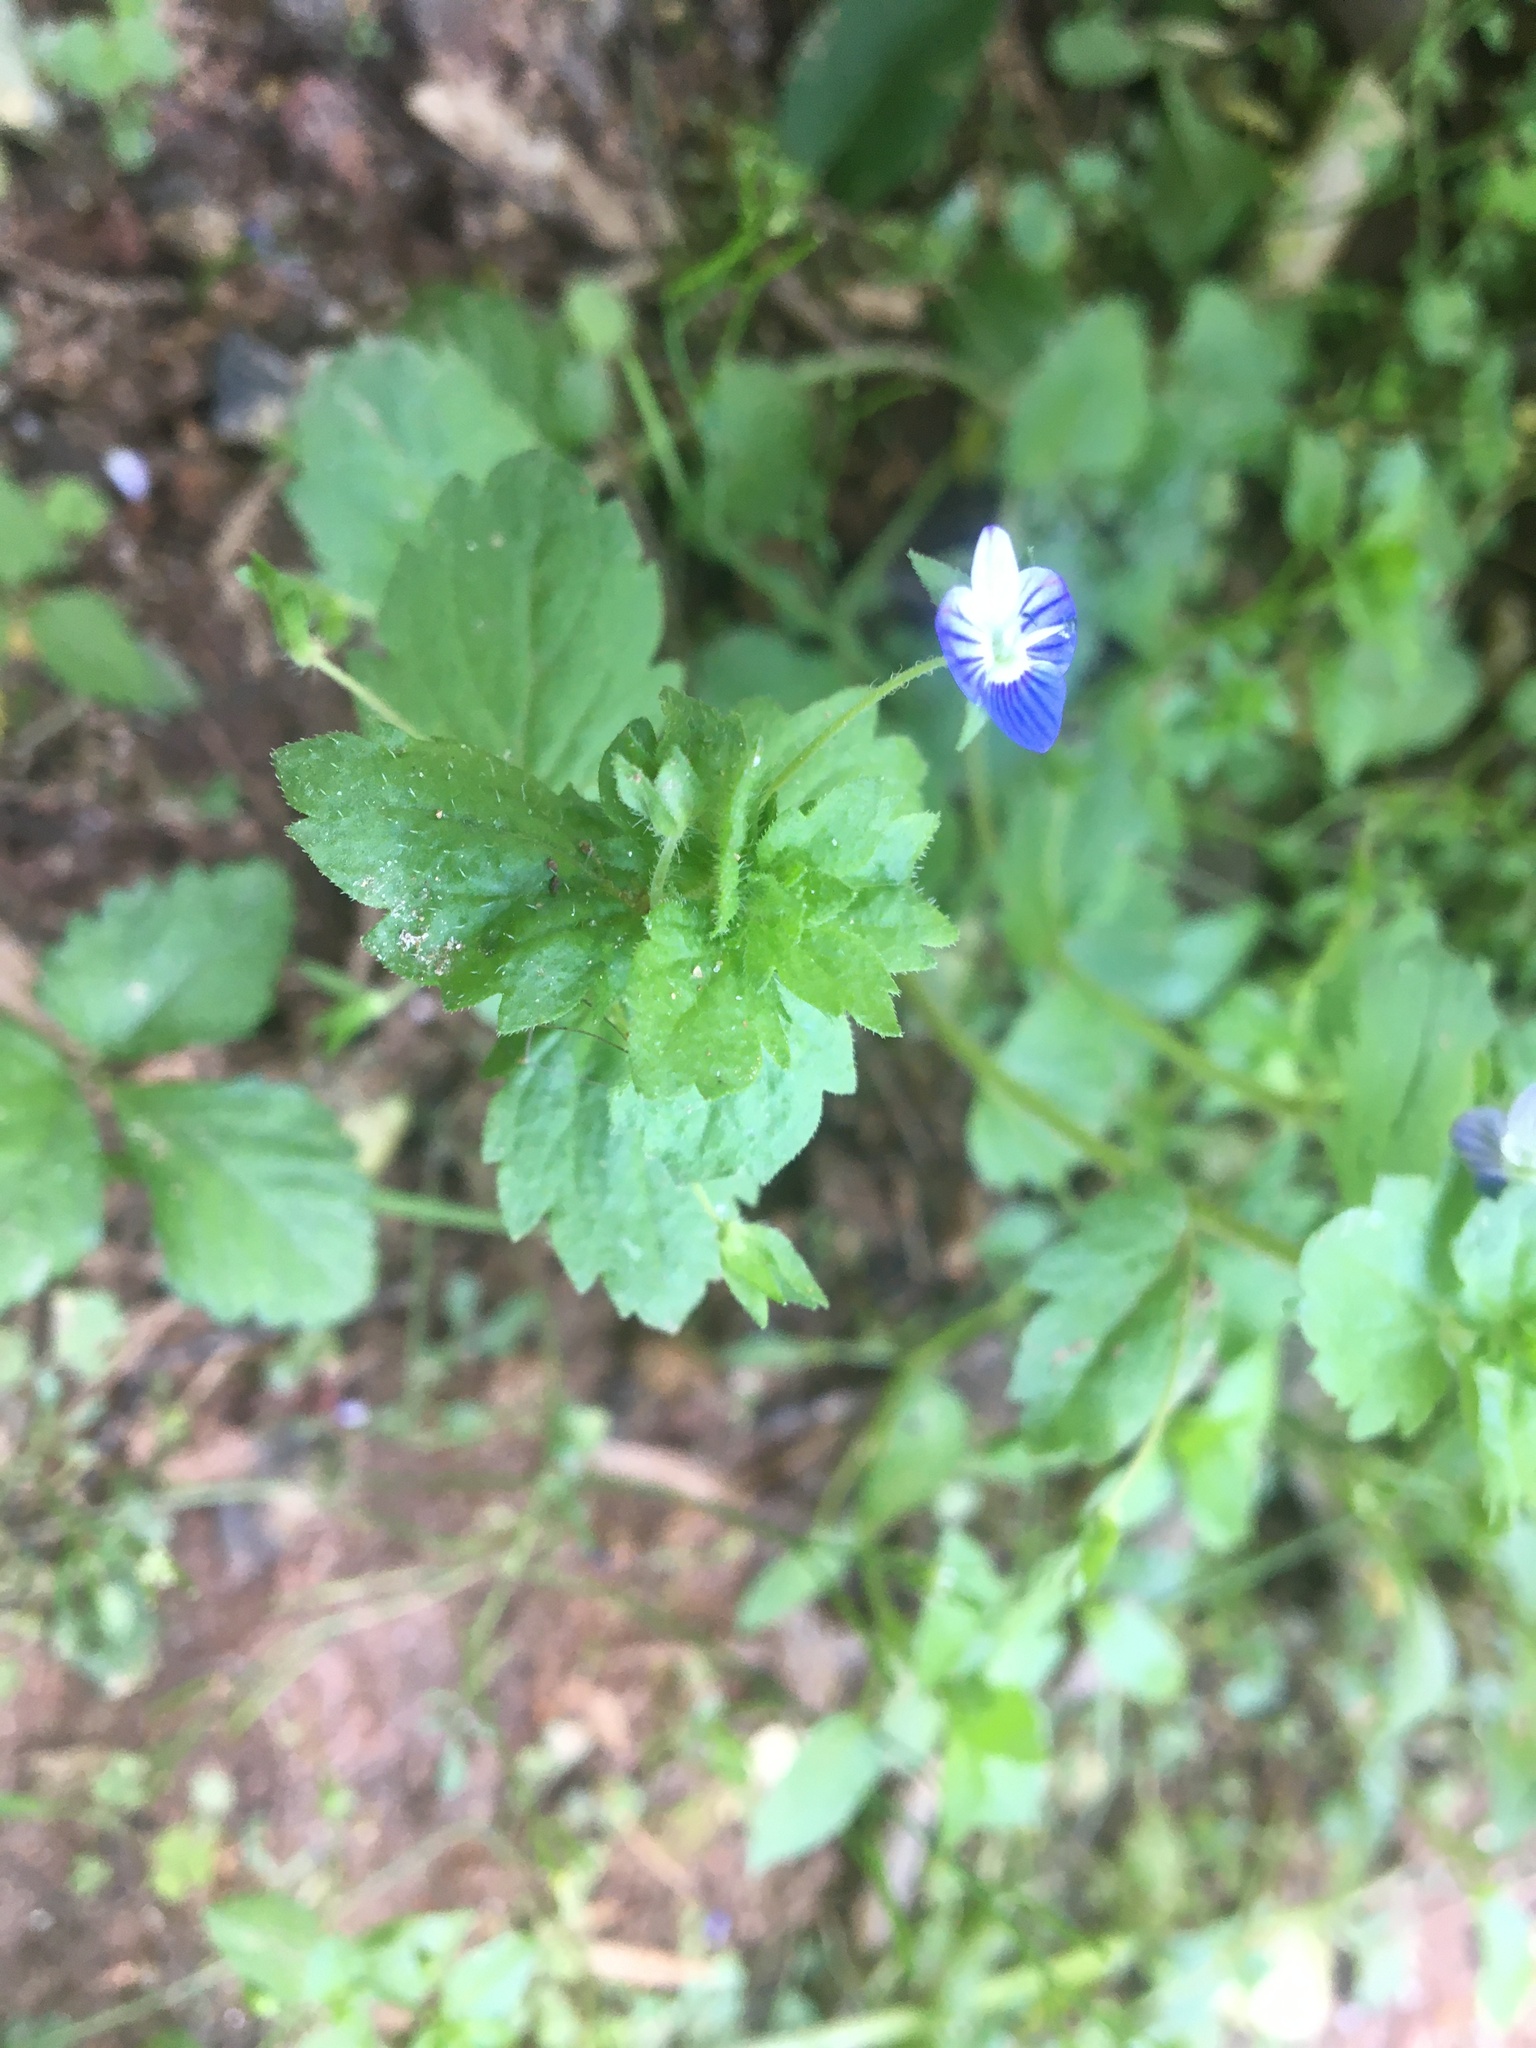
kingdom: Plantae
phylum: Tracheophyta
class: Magnoliopsida
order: Lamiales
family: Plantaginaceae
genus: Veronica
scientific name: Veronica persica
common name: Common field-speedwell
